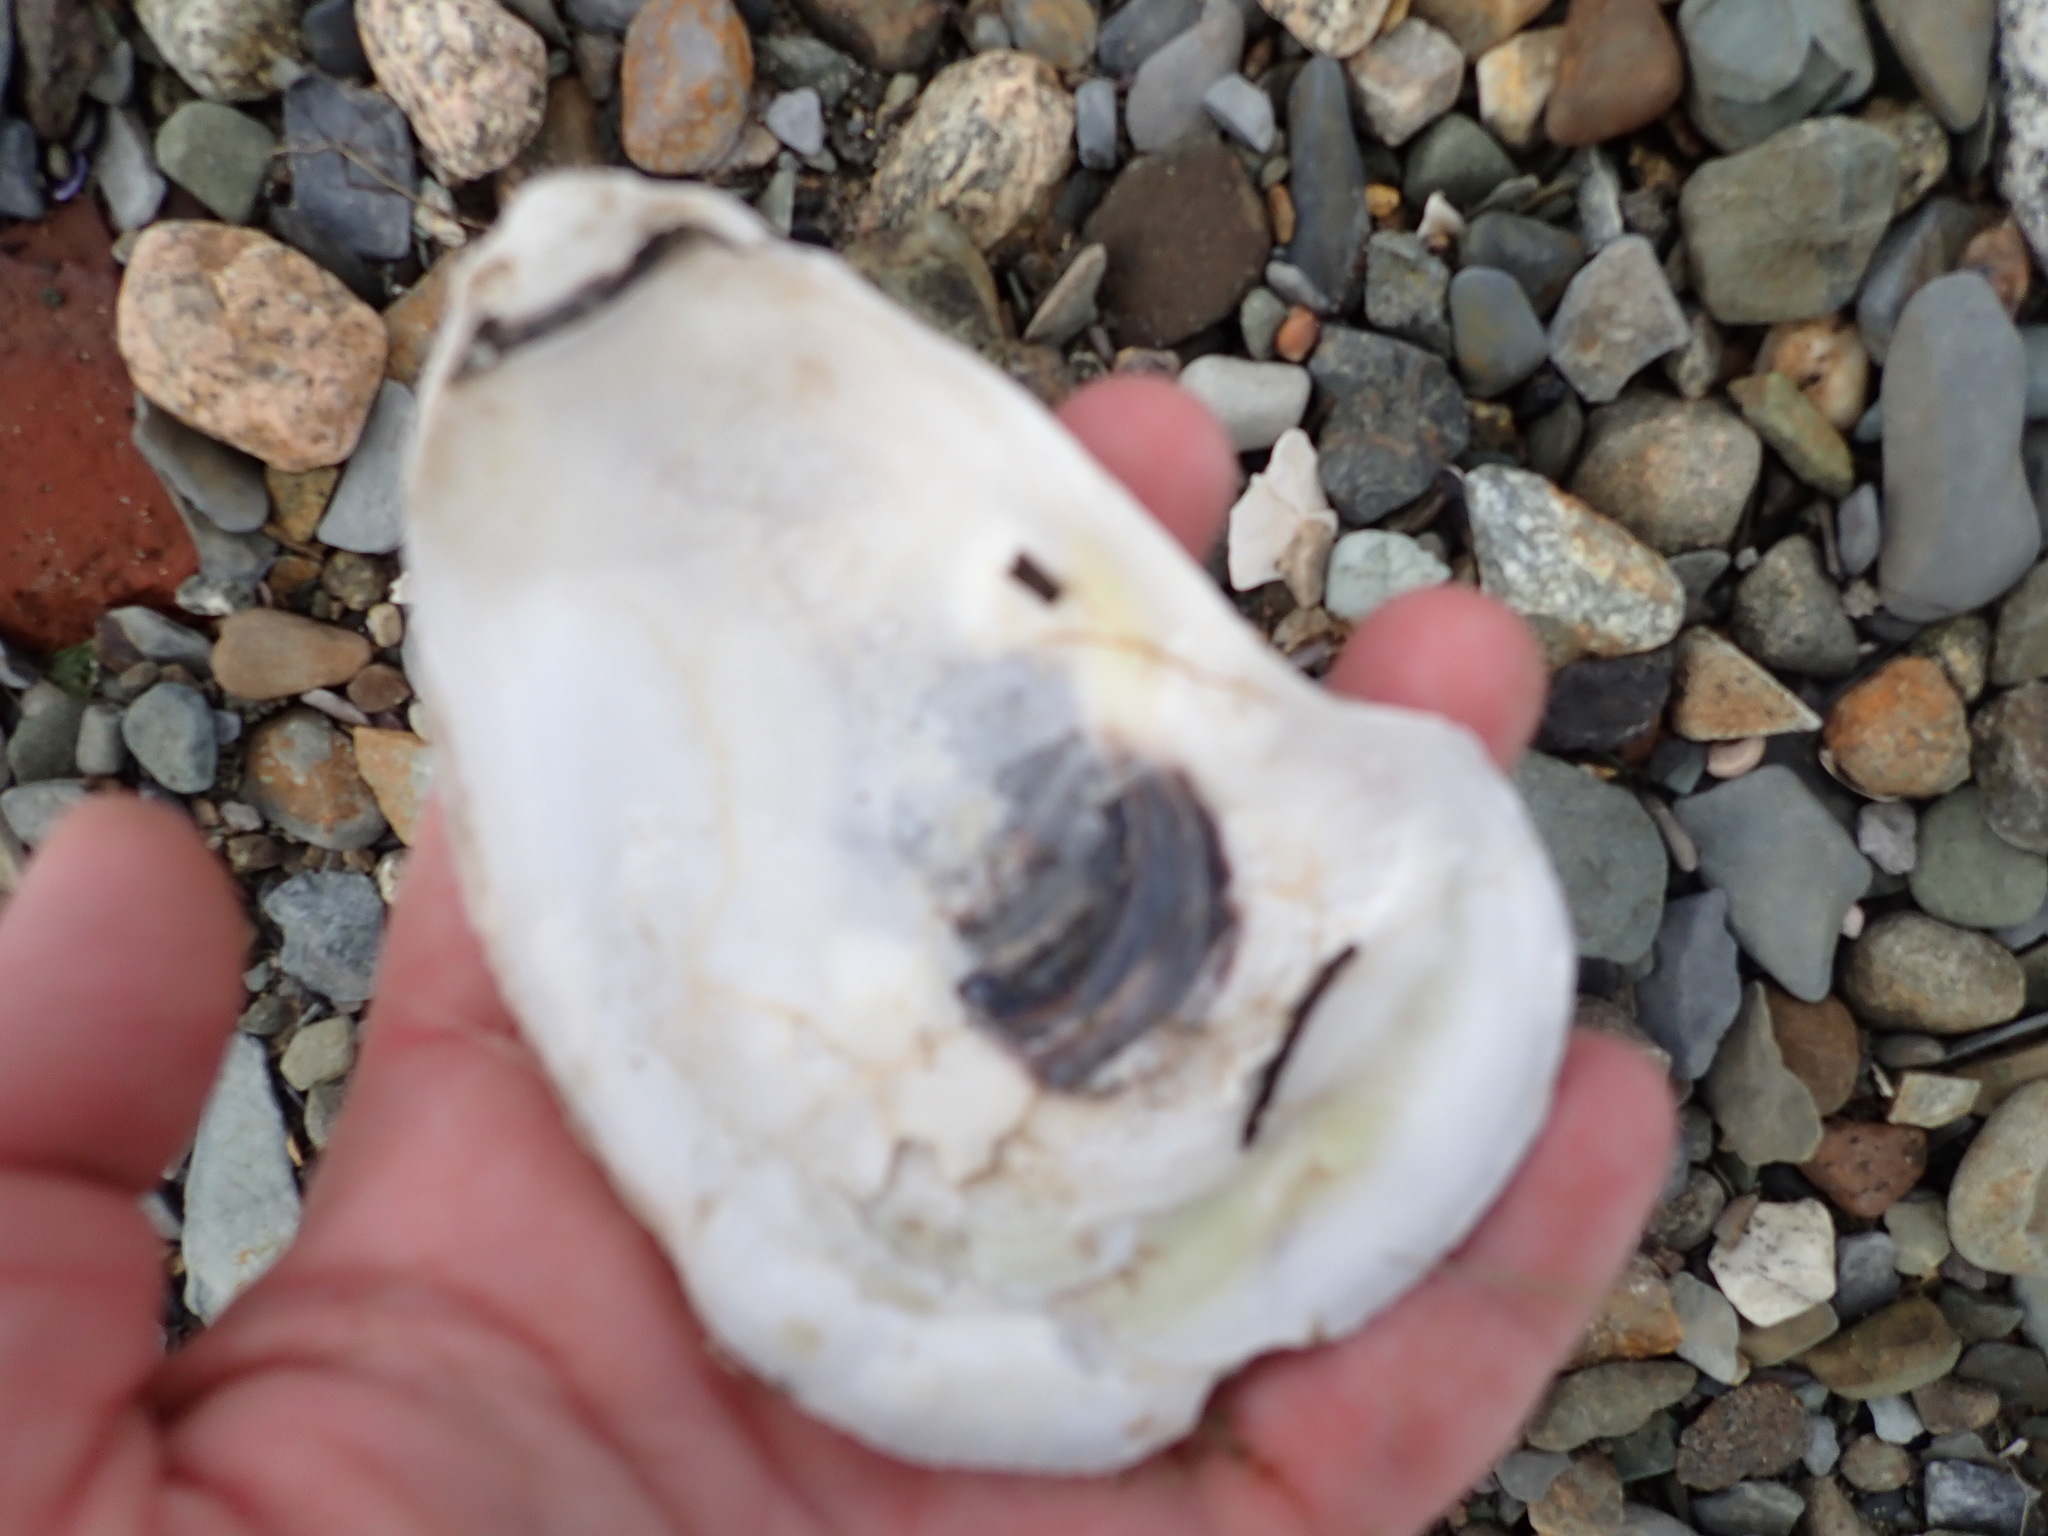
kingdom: Animalia
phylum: Mollusca
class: Bivalvia
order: Ostreida
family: Ostreidae
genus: Crassostrea
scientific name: Crassostrea virginica
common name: American oyster
